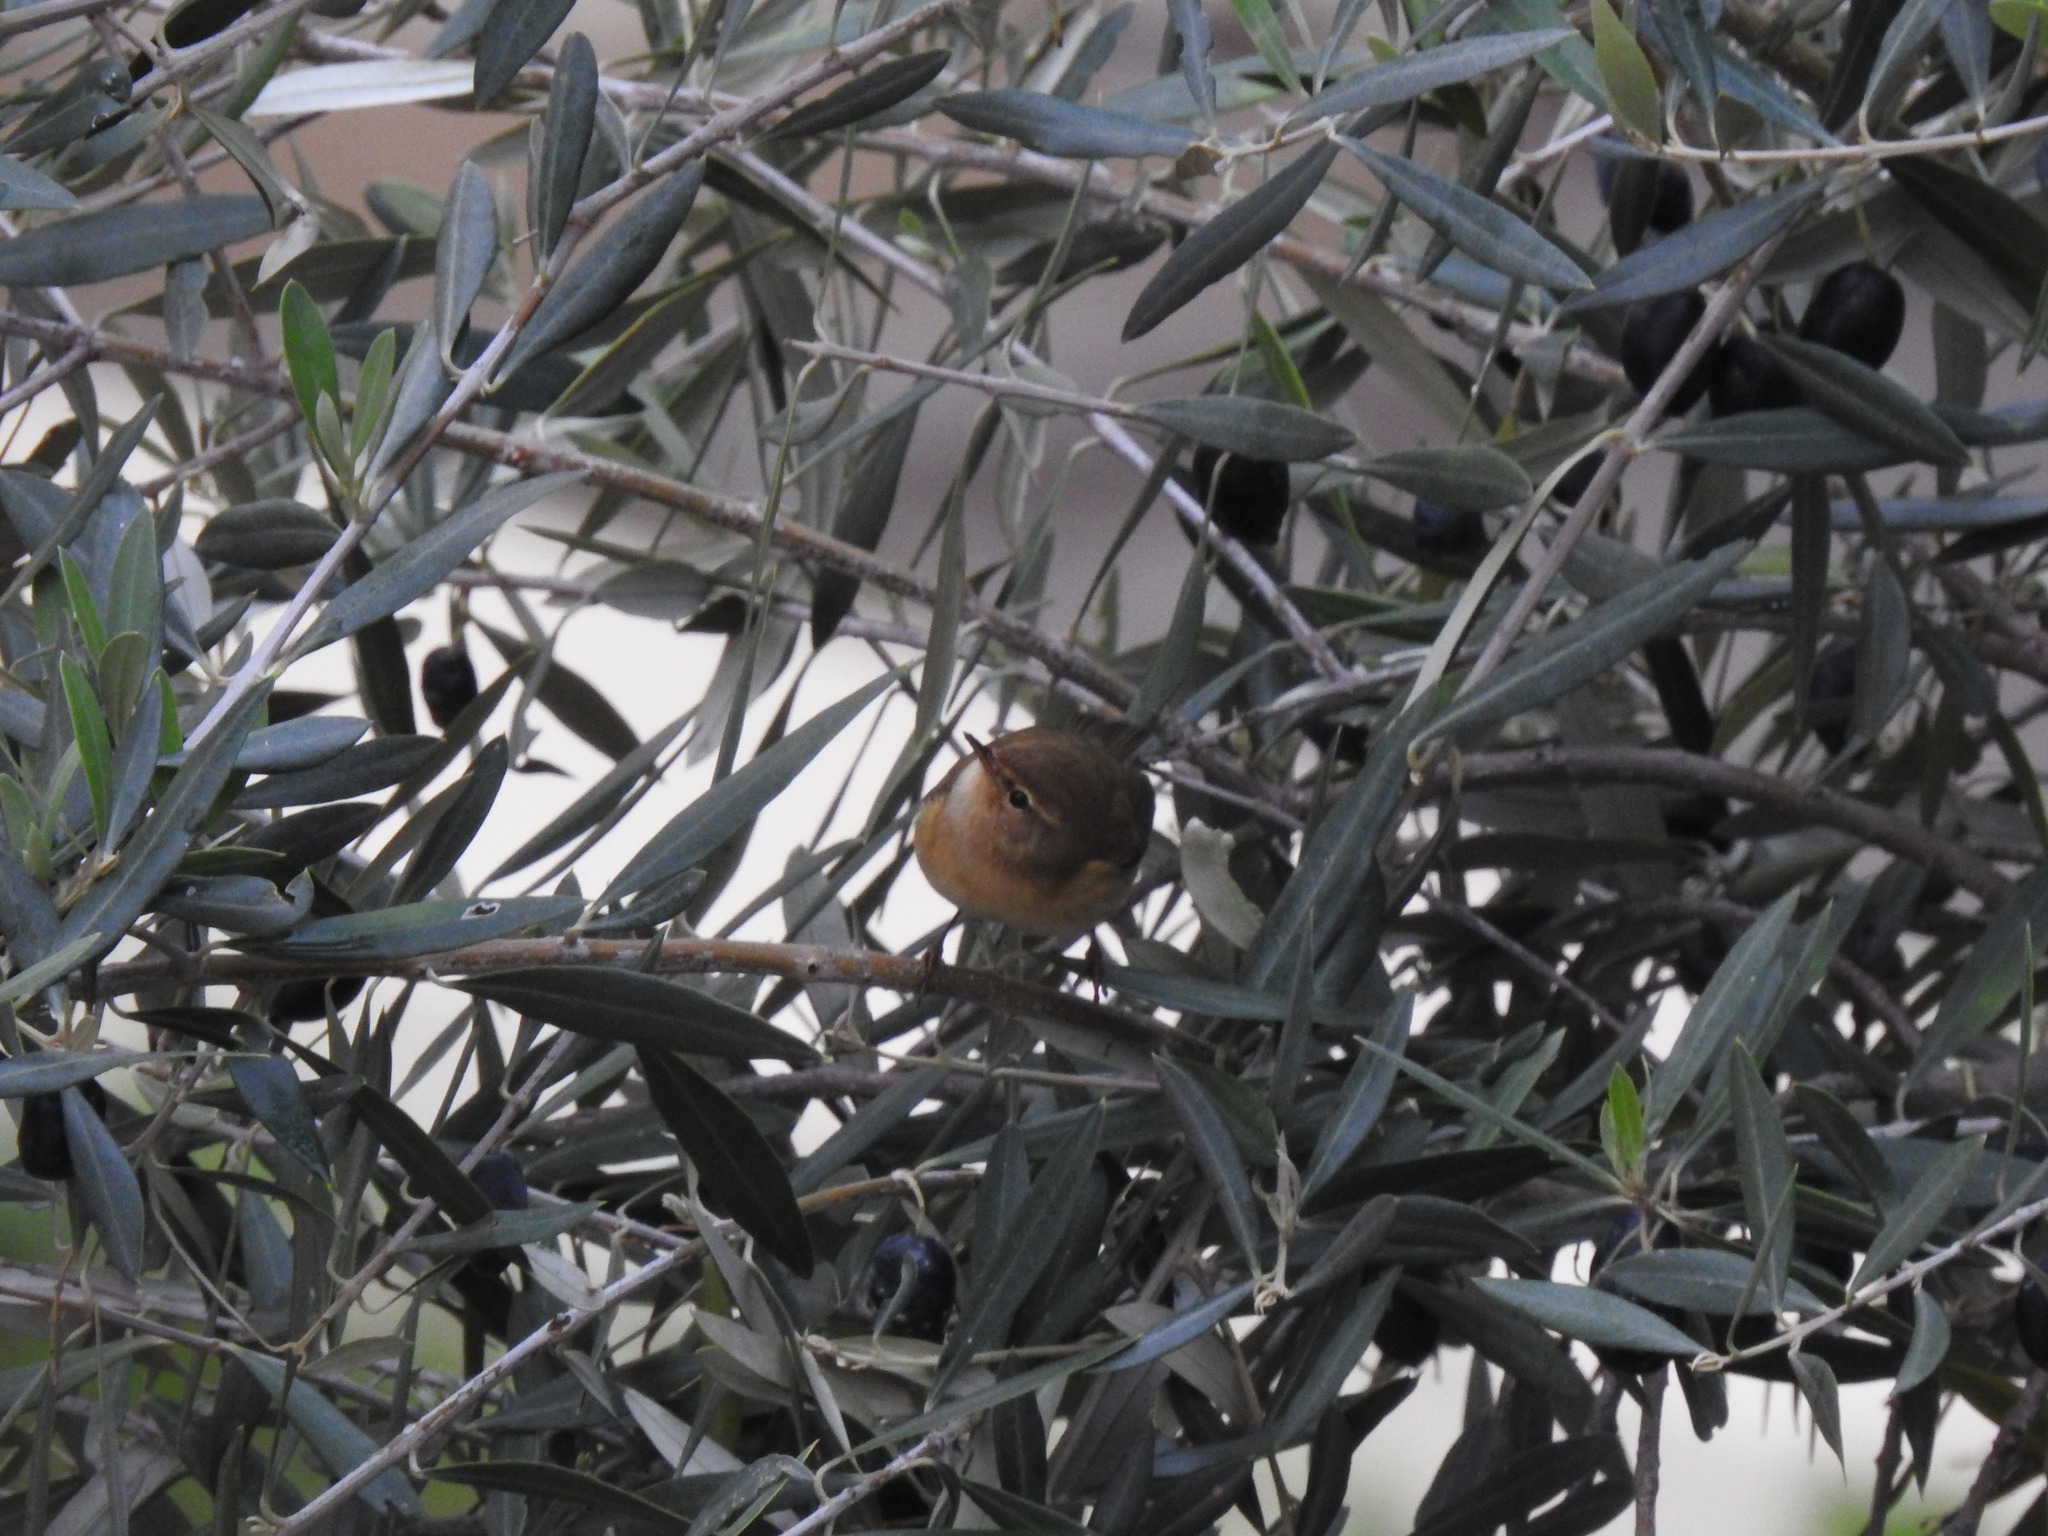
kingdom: Animalia
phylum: Chordata
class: Aves
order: Passeriformes
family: Phylloscopidae
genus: Phylloscopus
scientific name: Phylloscopus collybita
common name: Common chiffchaff
